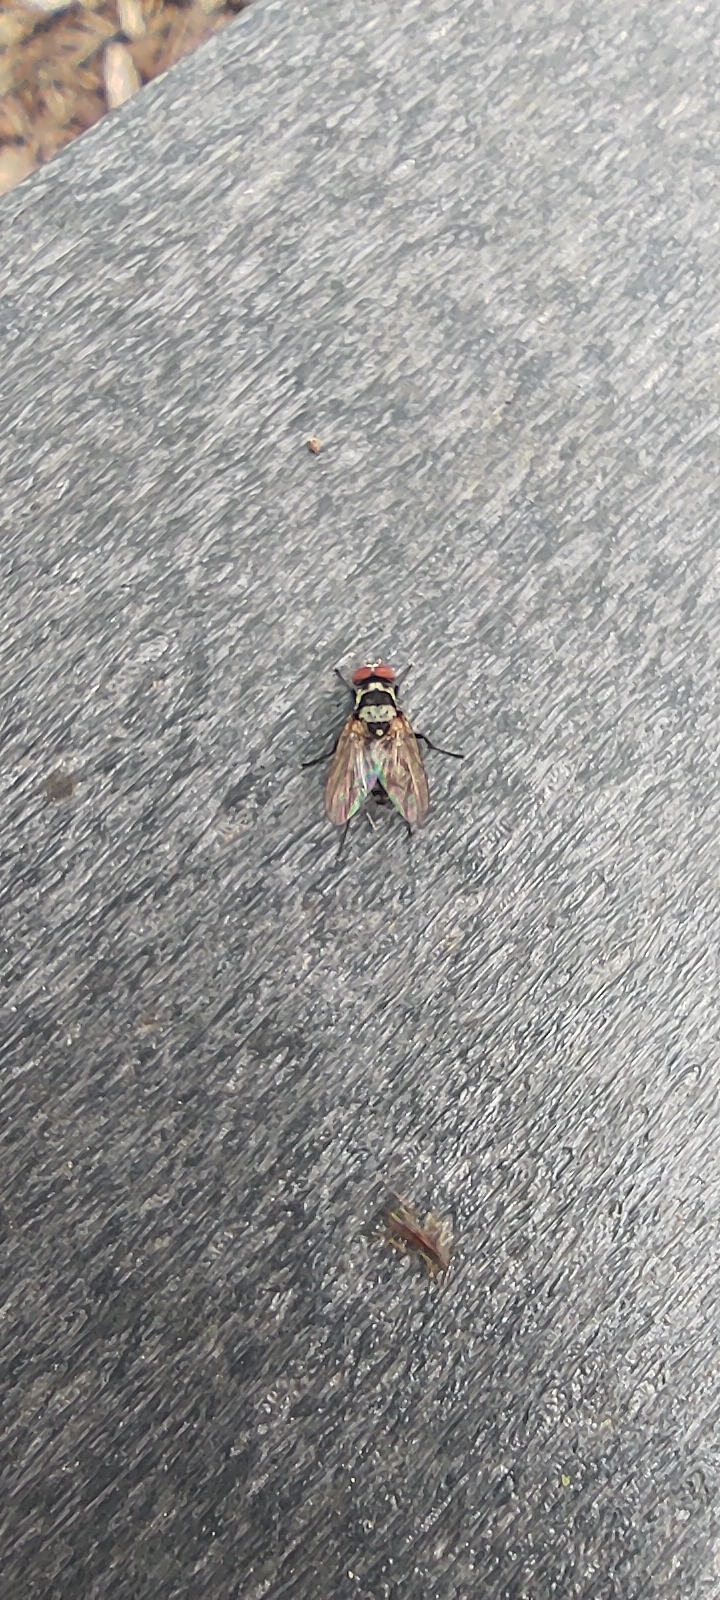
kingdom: Animalia
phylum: Arthropoda
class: Insecta
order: Diptera
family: Anthomyiidae
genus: Anthomyia
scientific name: Anthomyia oculifera
